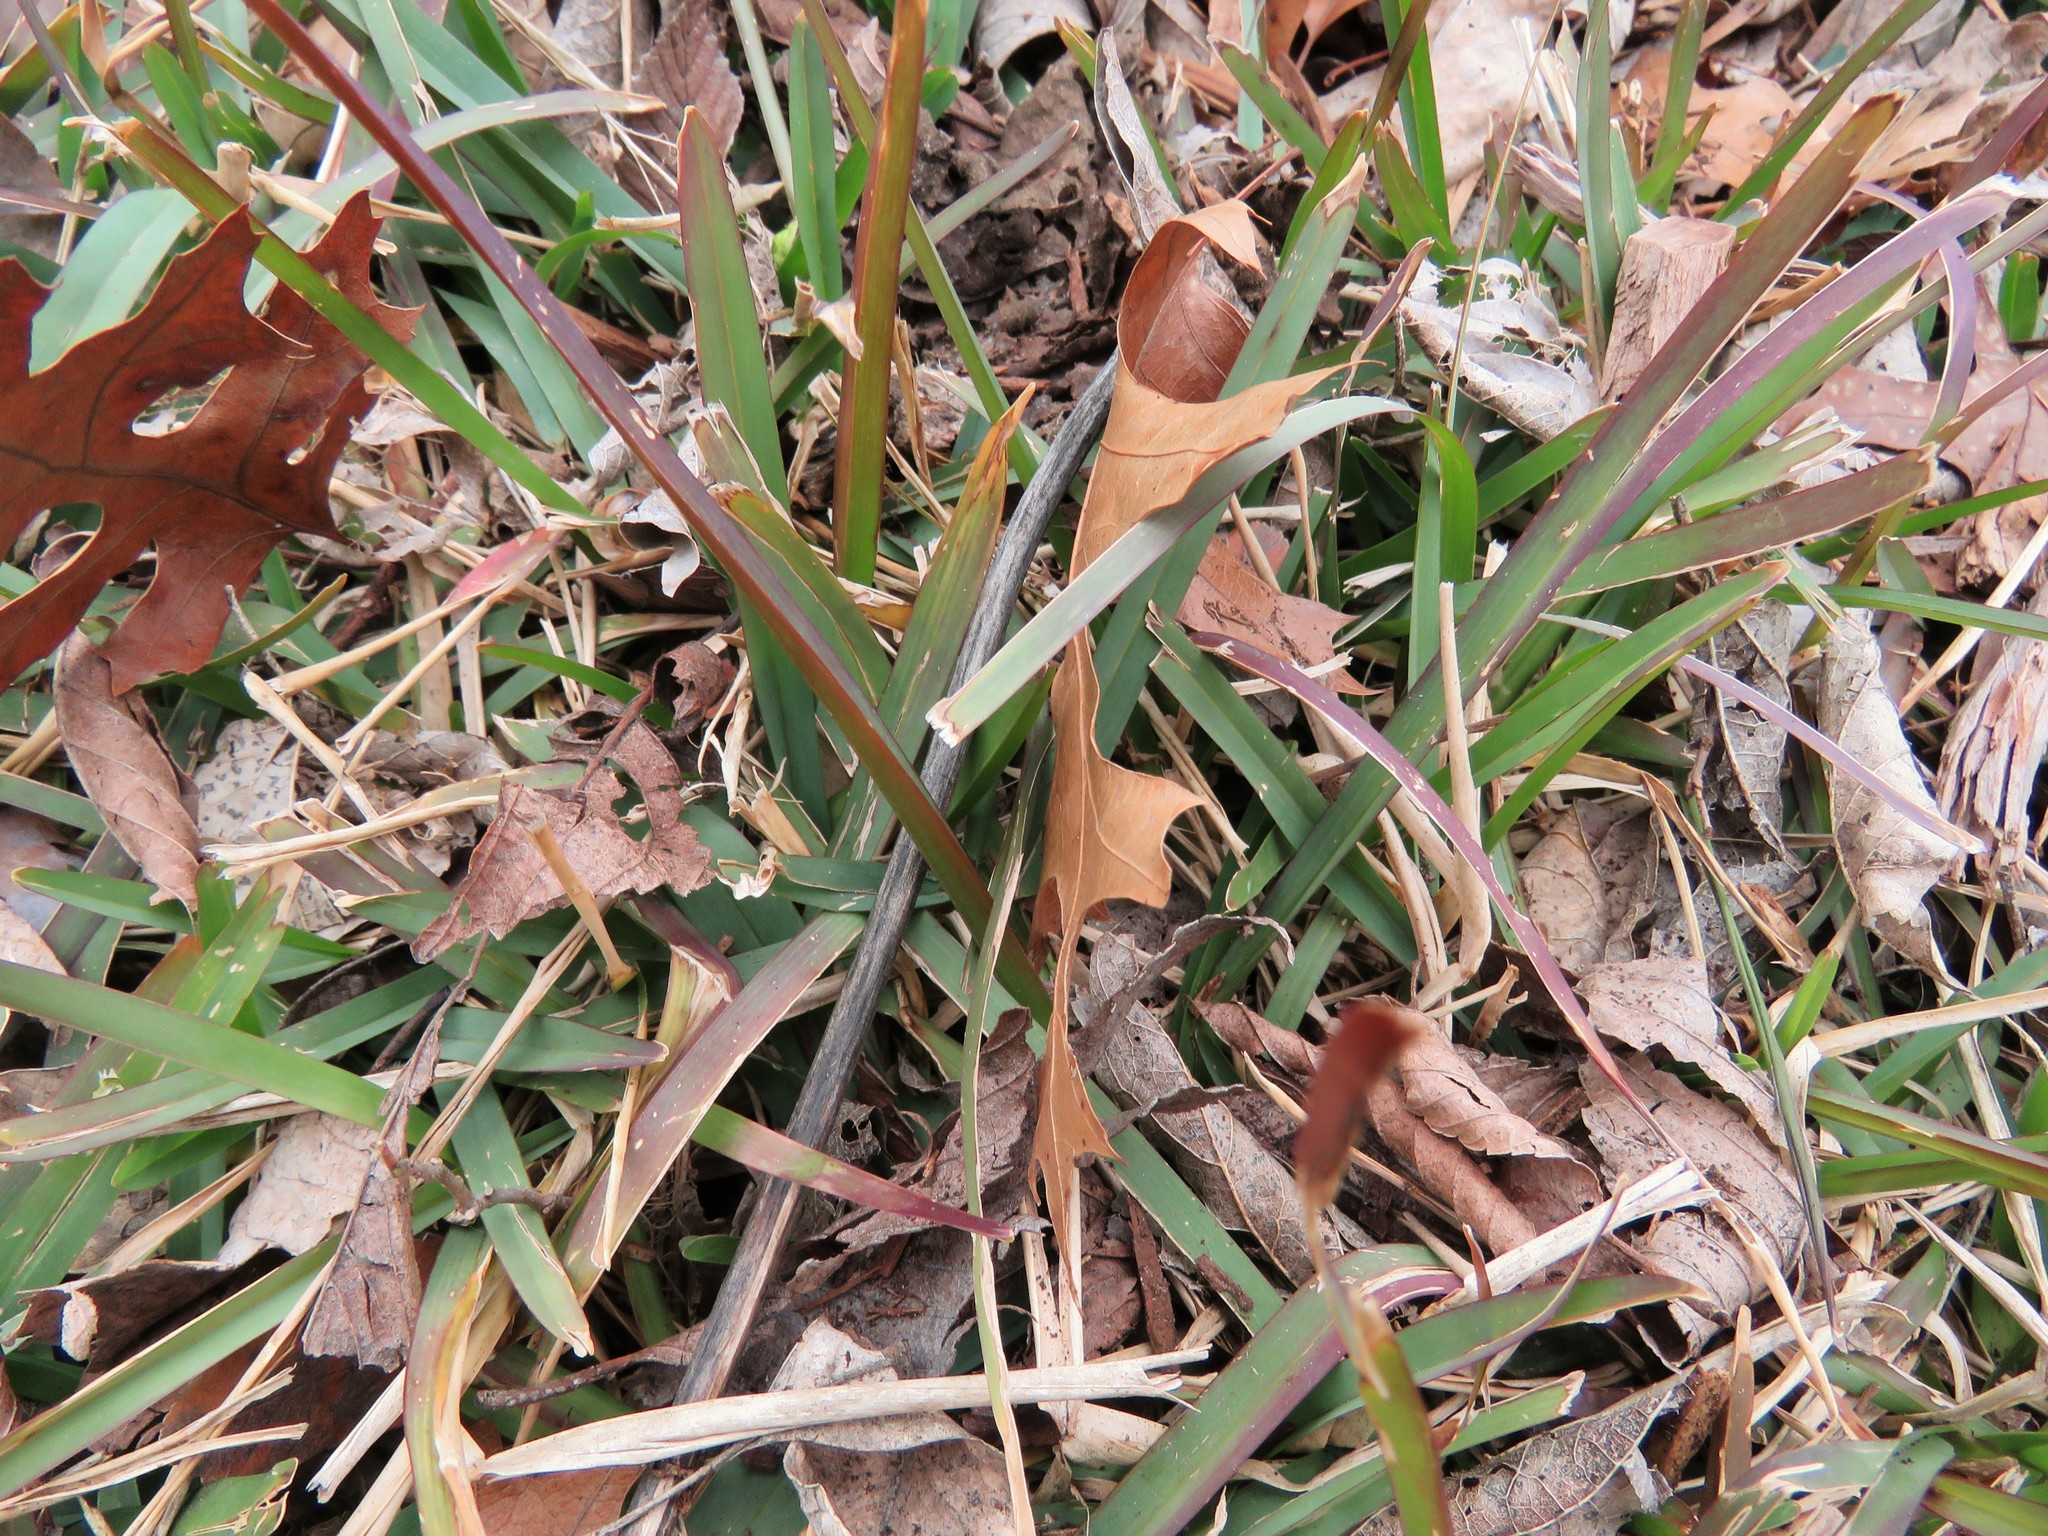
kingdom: Plantae
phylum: Tracheophyta
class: Liliopsida
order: Poales
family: Poaceae
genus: Stenotaphrum
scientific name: Stenotaphrum secundatum
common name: St. augustine grass
